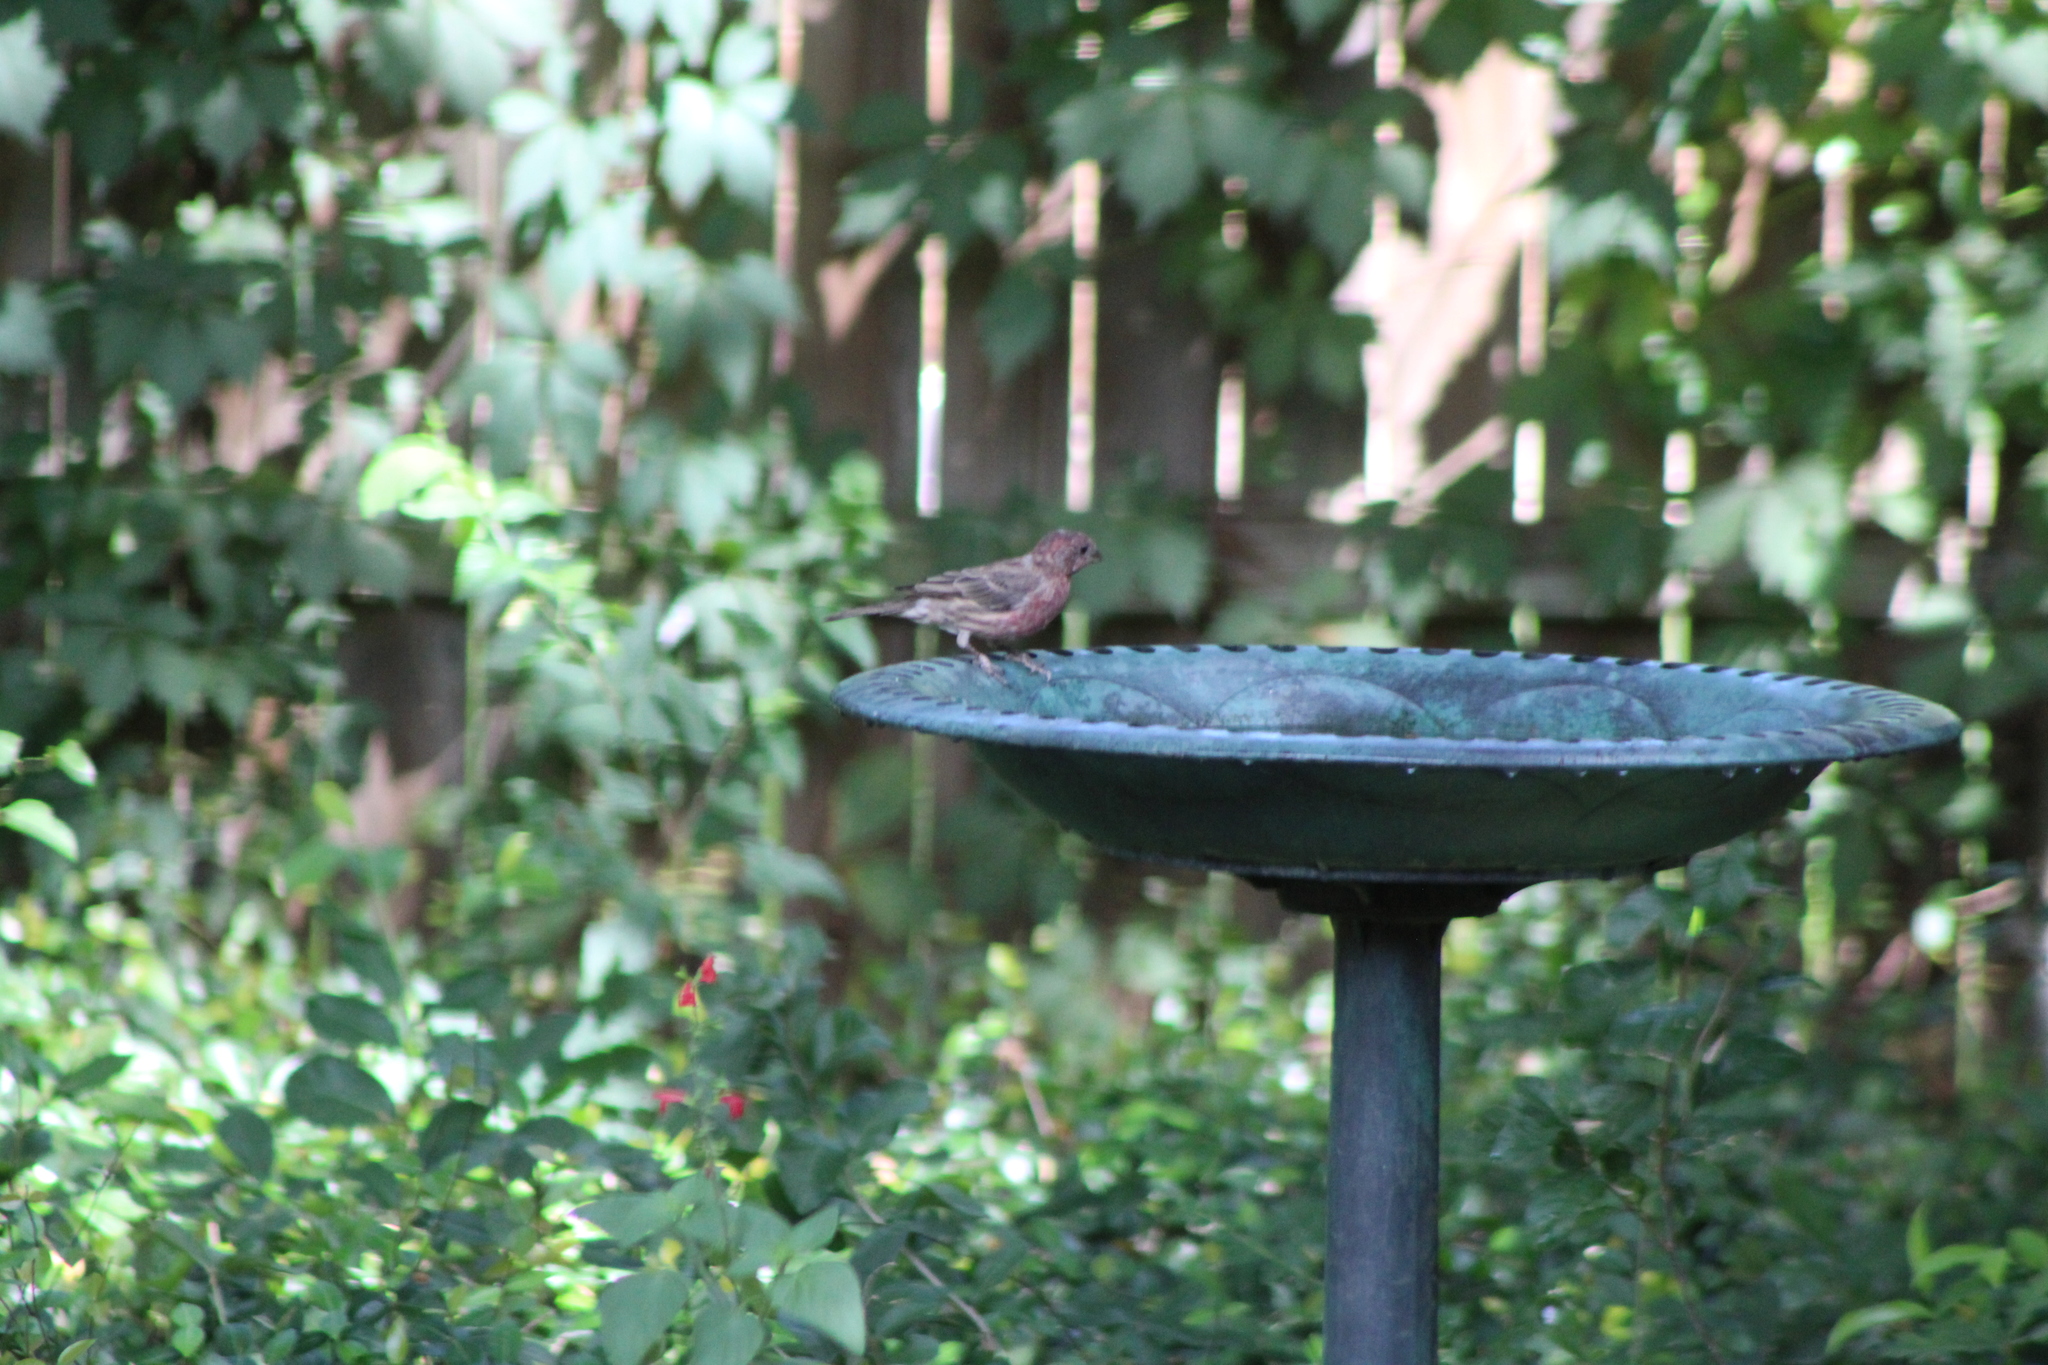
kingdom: Animalia
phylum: Chordata
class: Aves
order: Passeriformes
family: Fringillidae
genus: Haemorhous
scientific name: Haemorhous mexicanus
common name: House finch
